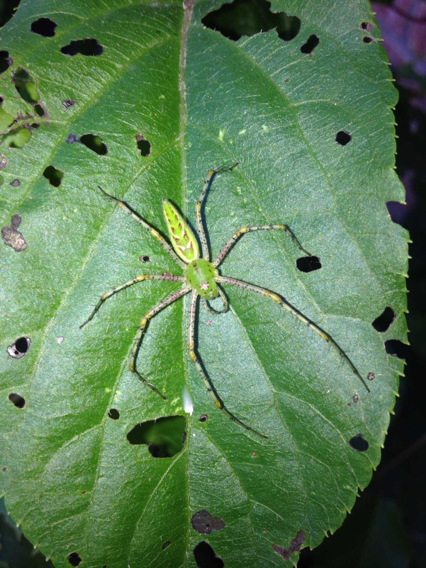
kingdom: Animalia
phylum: Arthropoda
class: Arachnida
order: Araneae
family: Oxyopidae
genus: Peucetia
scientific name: Peucetia viridans
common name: Lynx spiders
